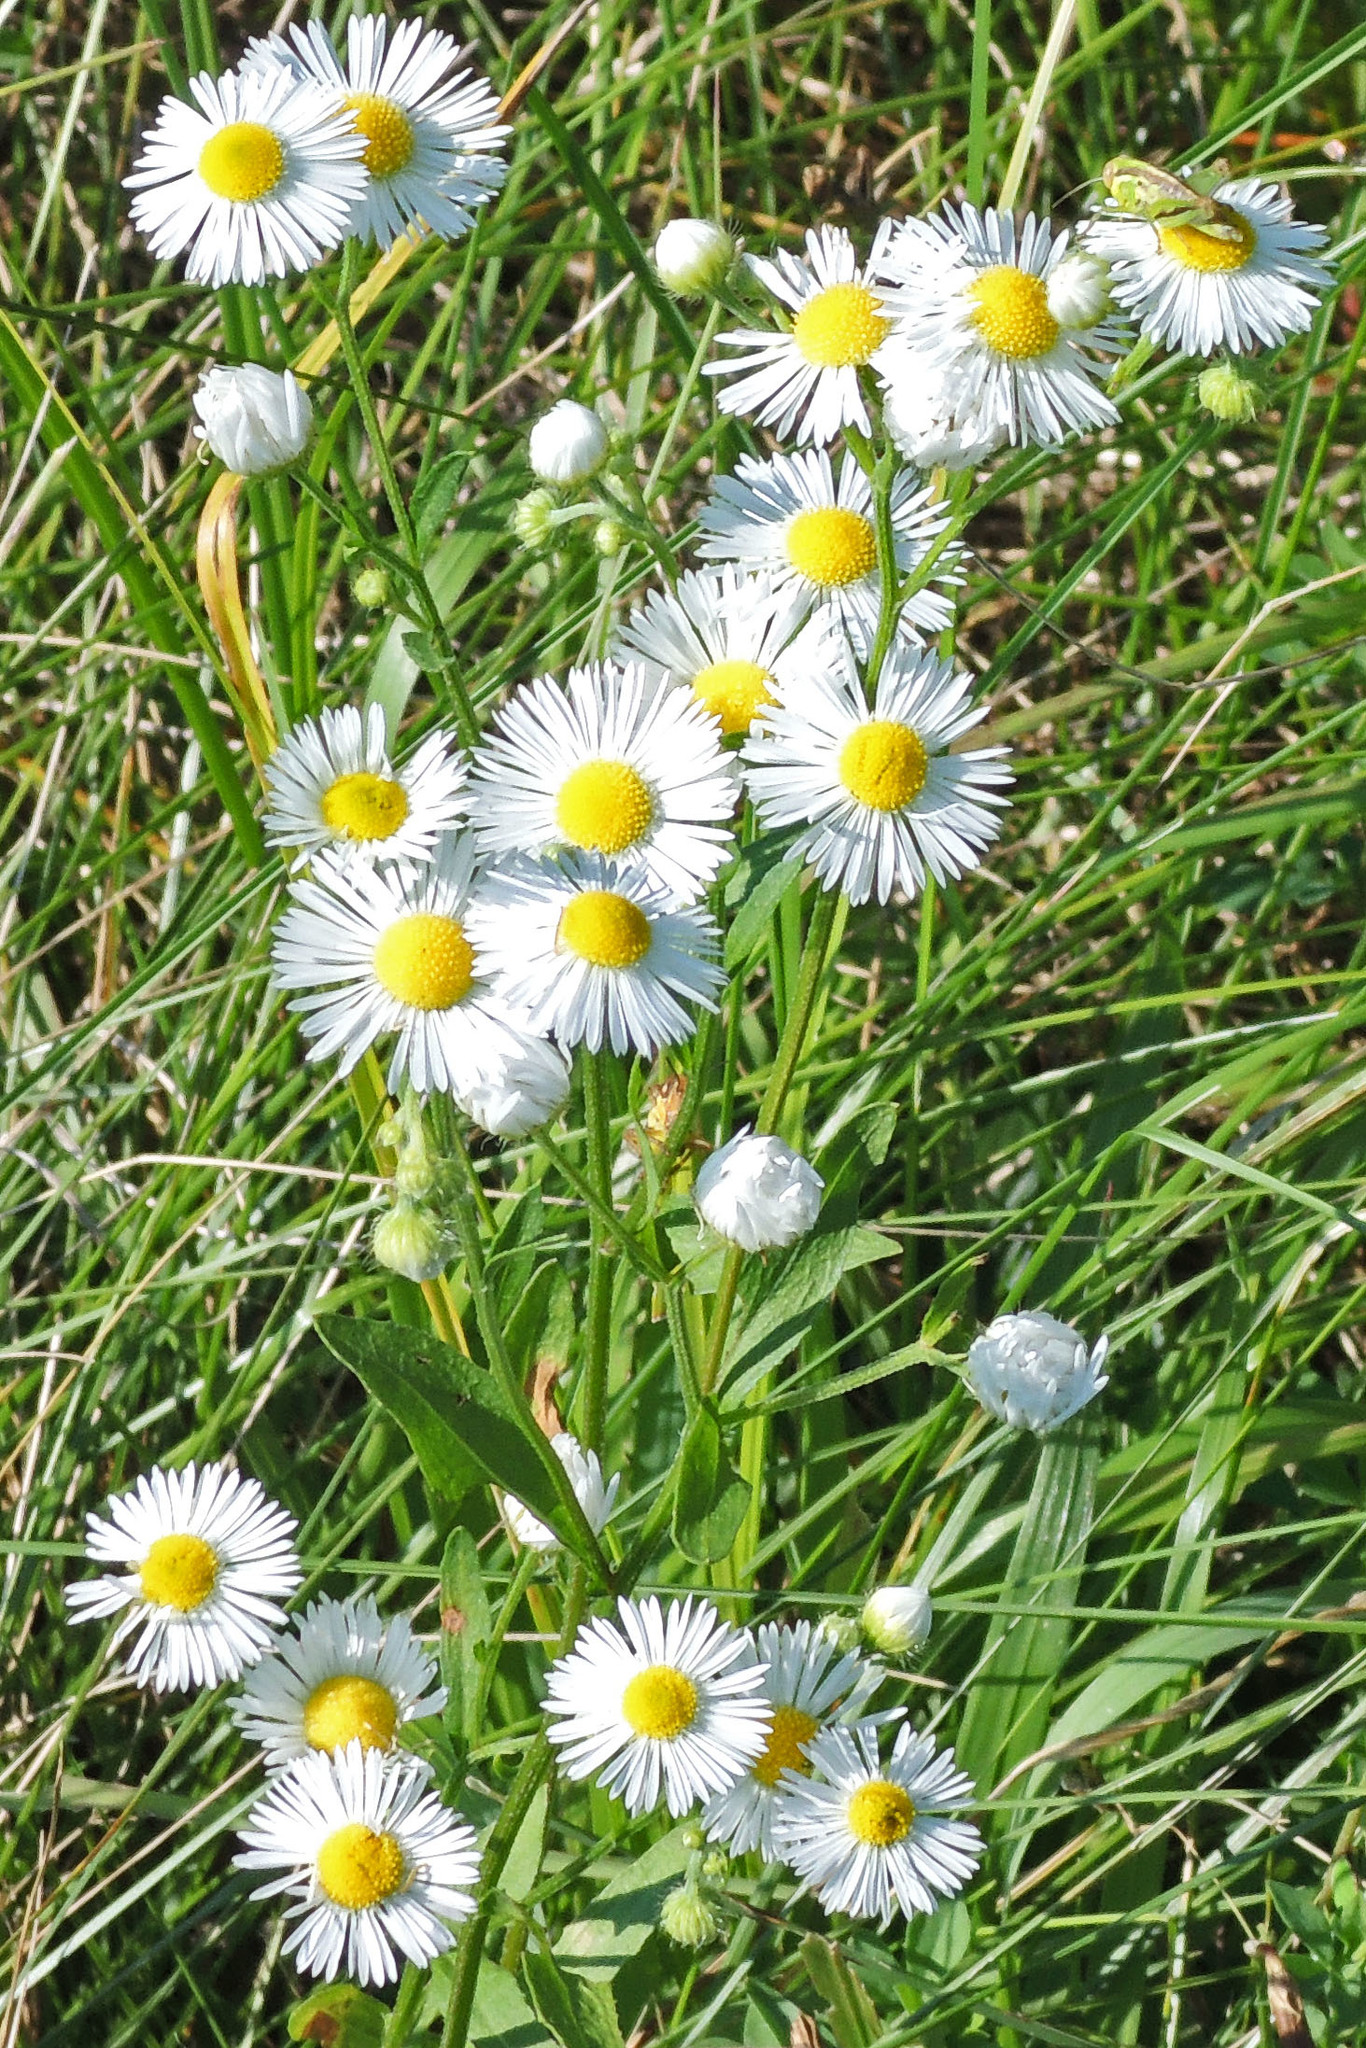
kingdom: Plantae
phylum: Tracheophyta
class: Magnoliopsida
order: Asterales
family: Asteraceae
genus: Erigeron
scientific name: Erigeron strigosus
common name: Common eastern fleabane
